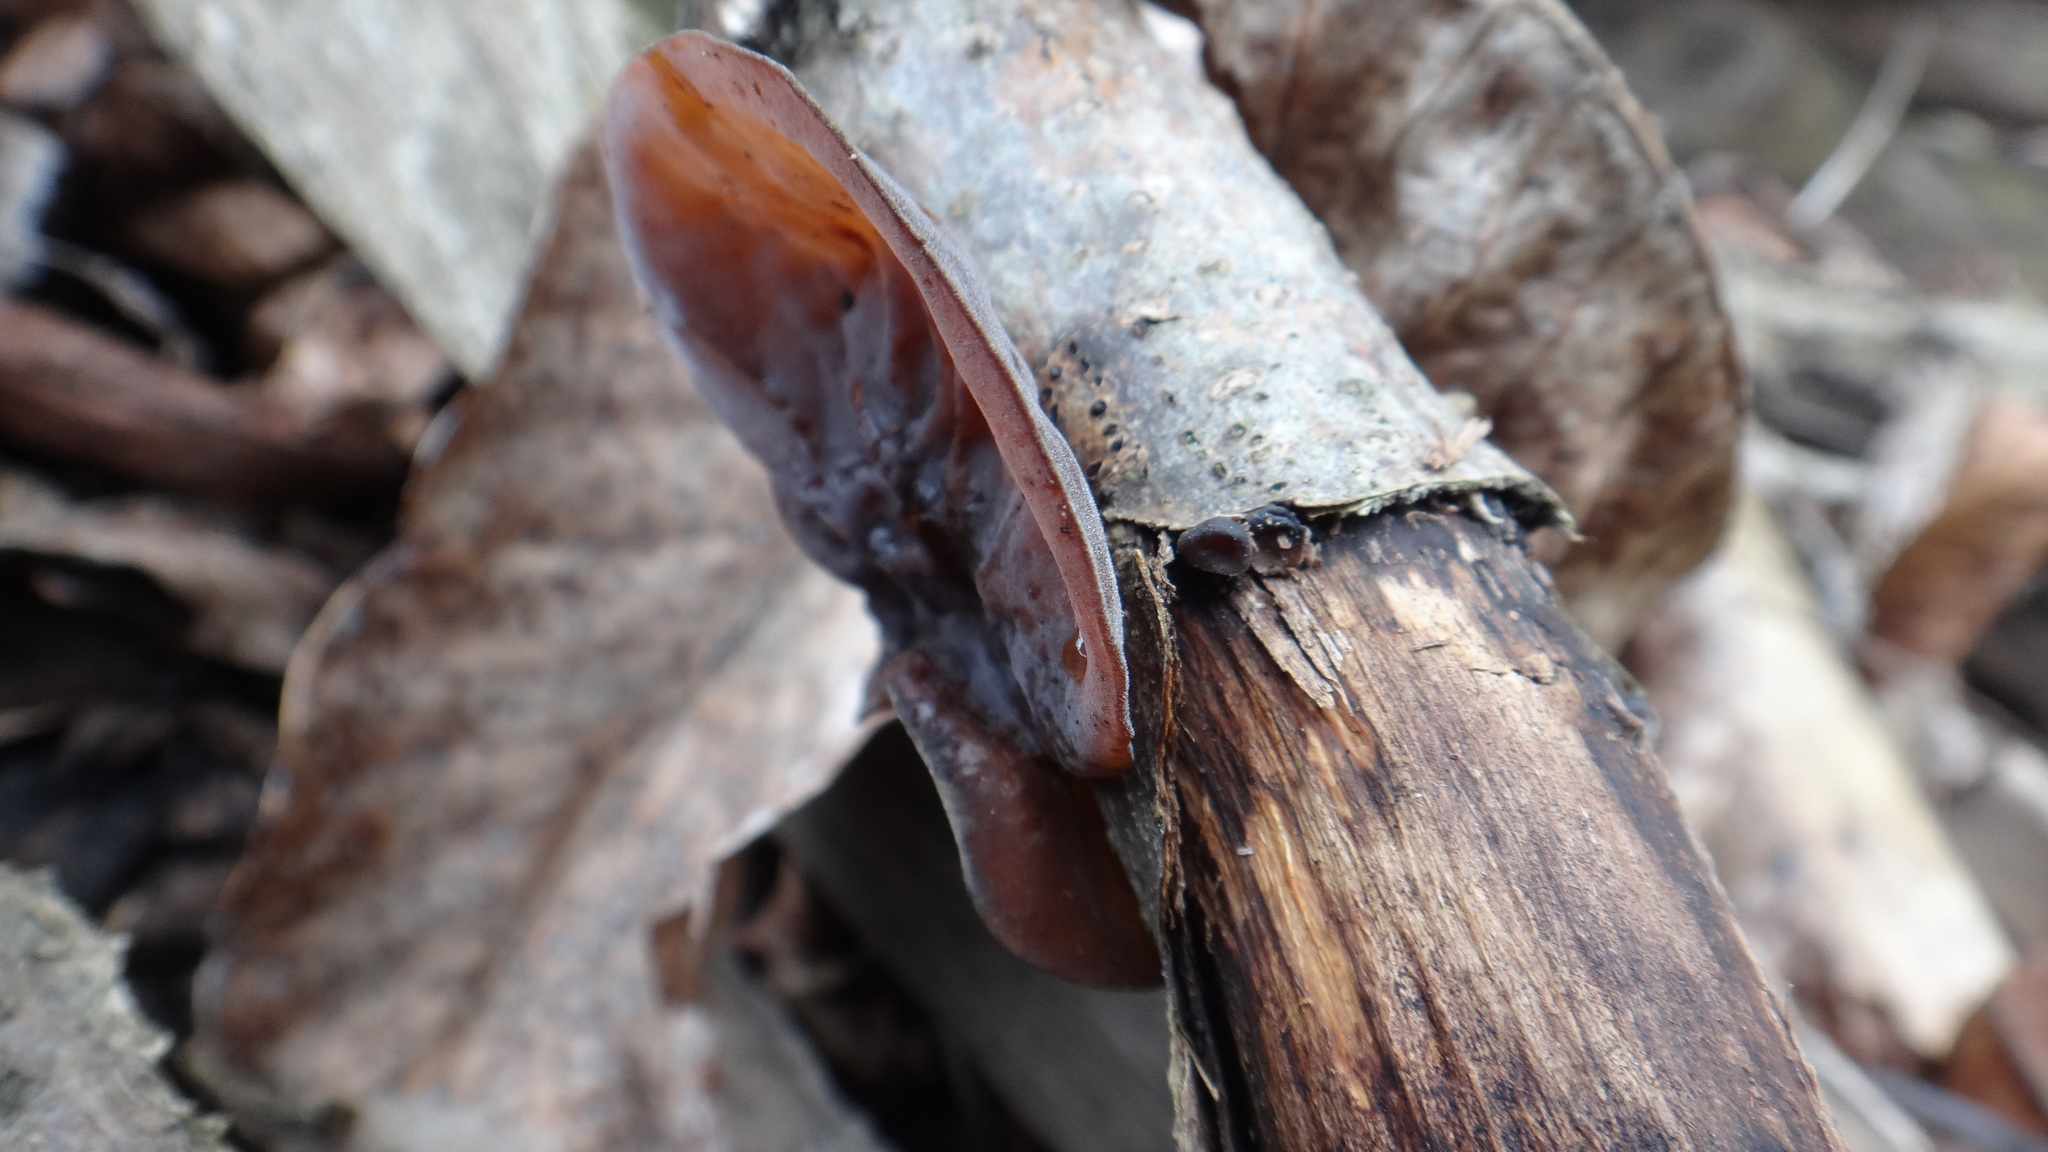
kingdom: Fungi
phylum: Basidiomycota
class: Agaricomycetes
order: Auriculariales
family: Auriculariaceae
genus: Auricularia
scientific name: Auricularia auricula-judae
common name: Jelly ear
